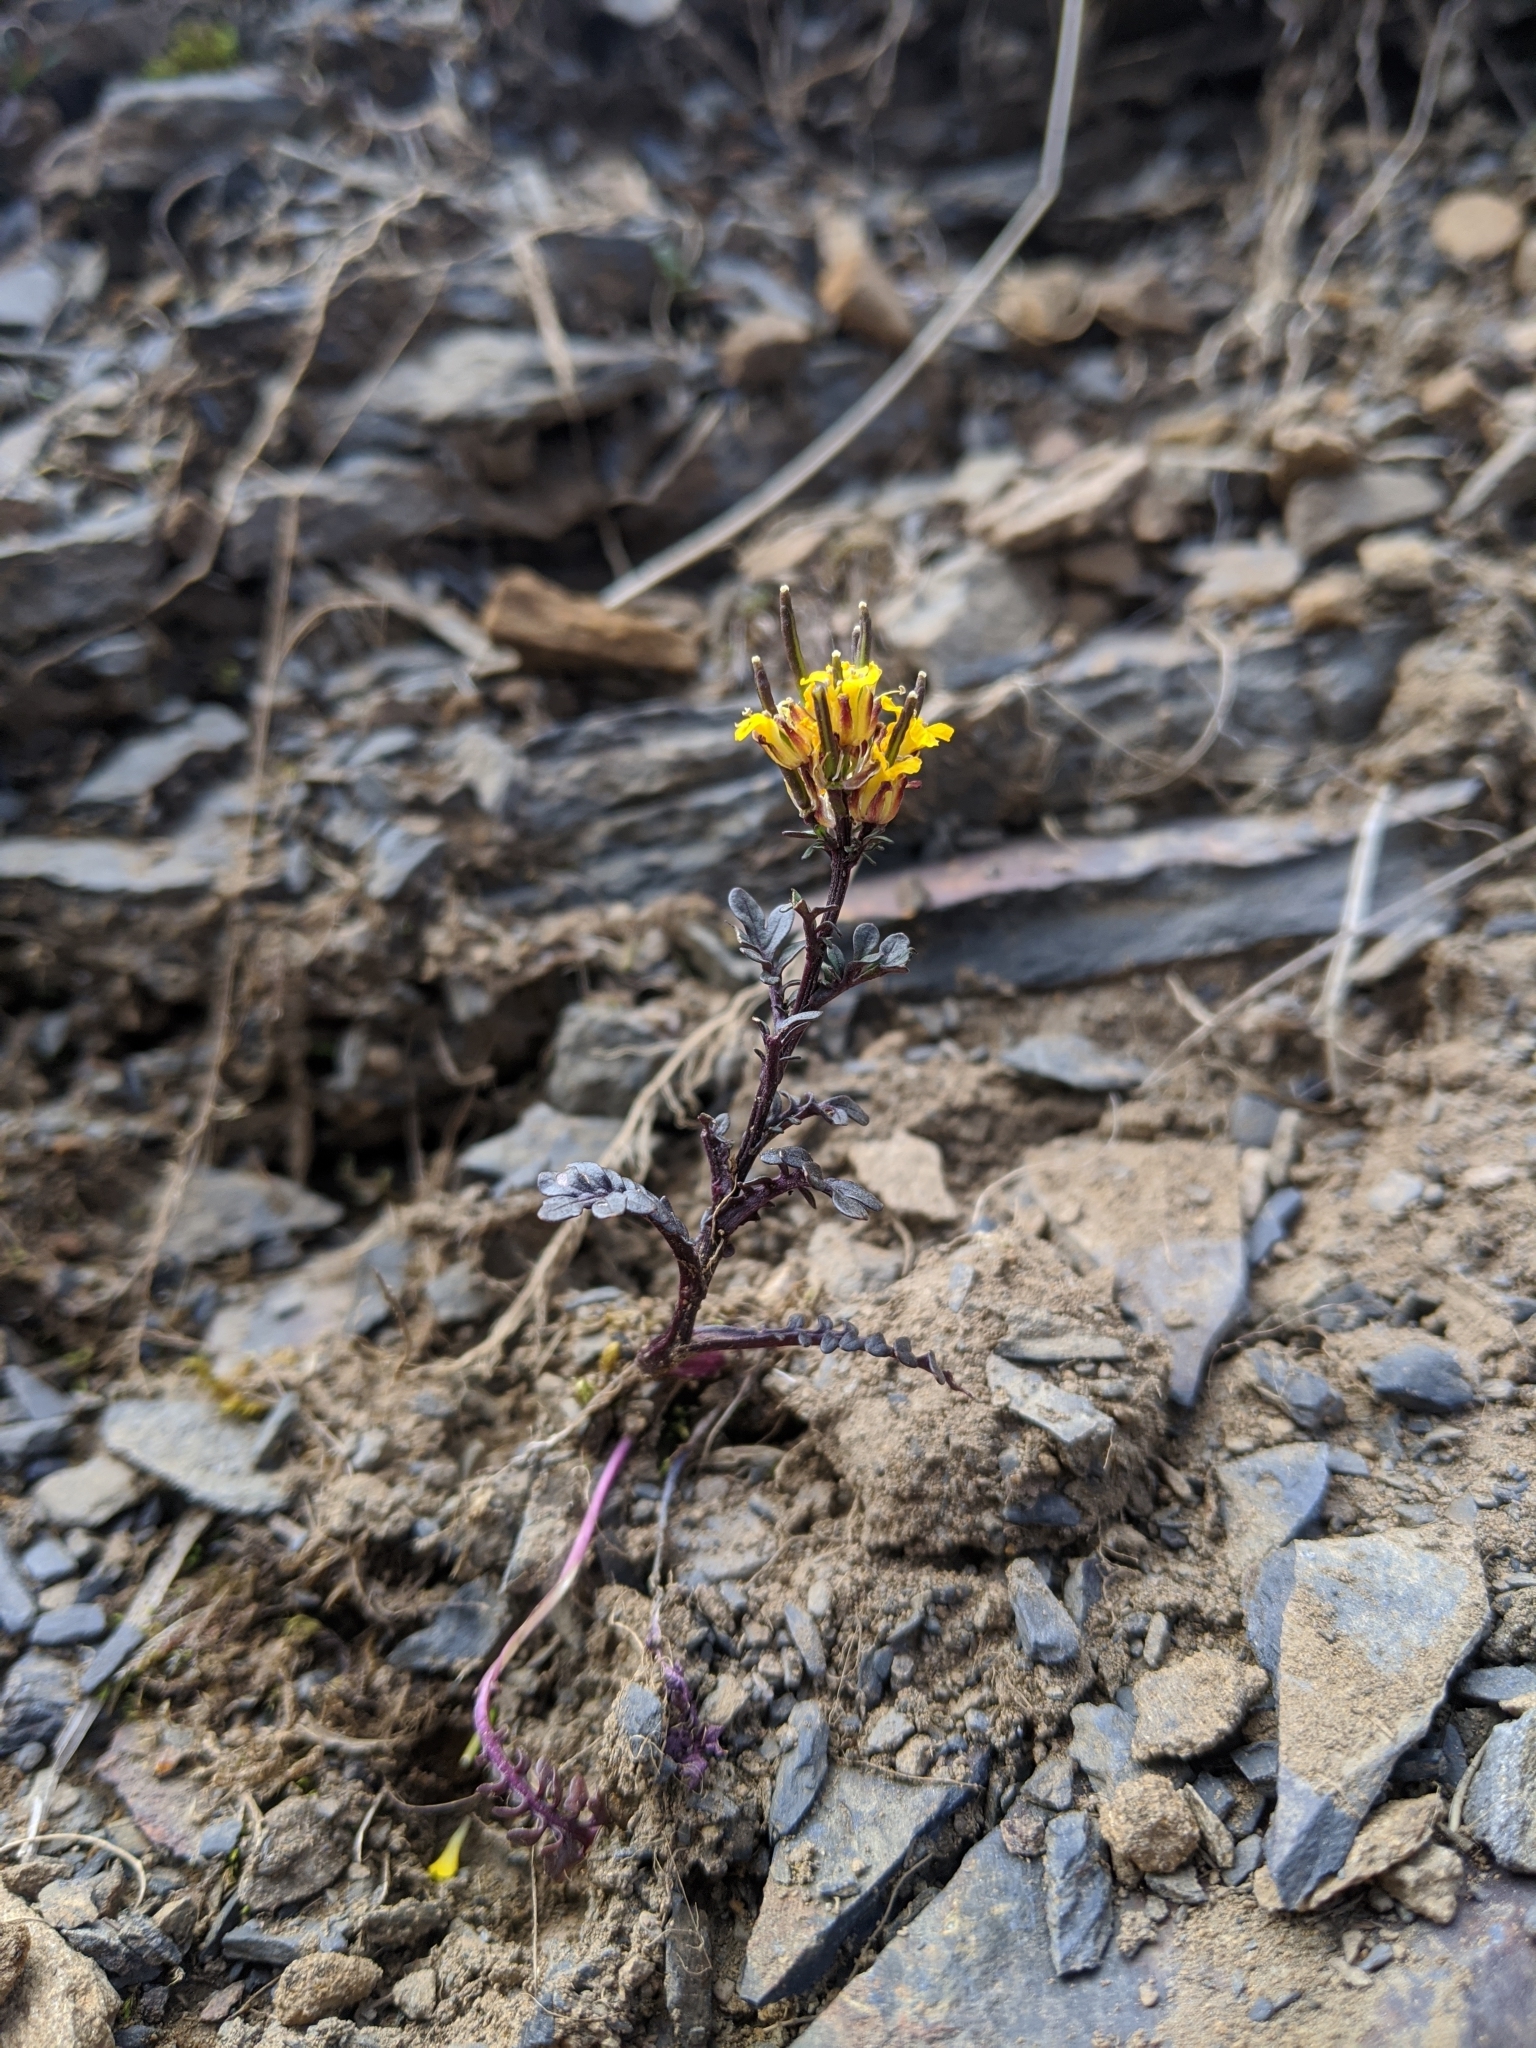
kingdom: Plantae
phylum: Tracheophyta
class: Magnoliopsida
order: Brassicales
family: Brassicaceae
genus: Barbarea
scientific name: Barbarea taiwaniana
